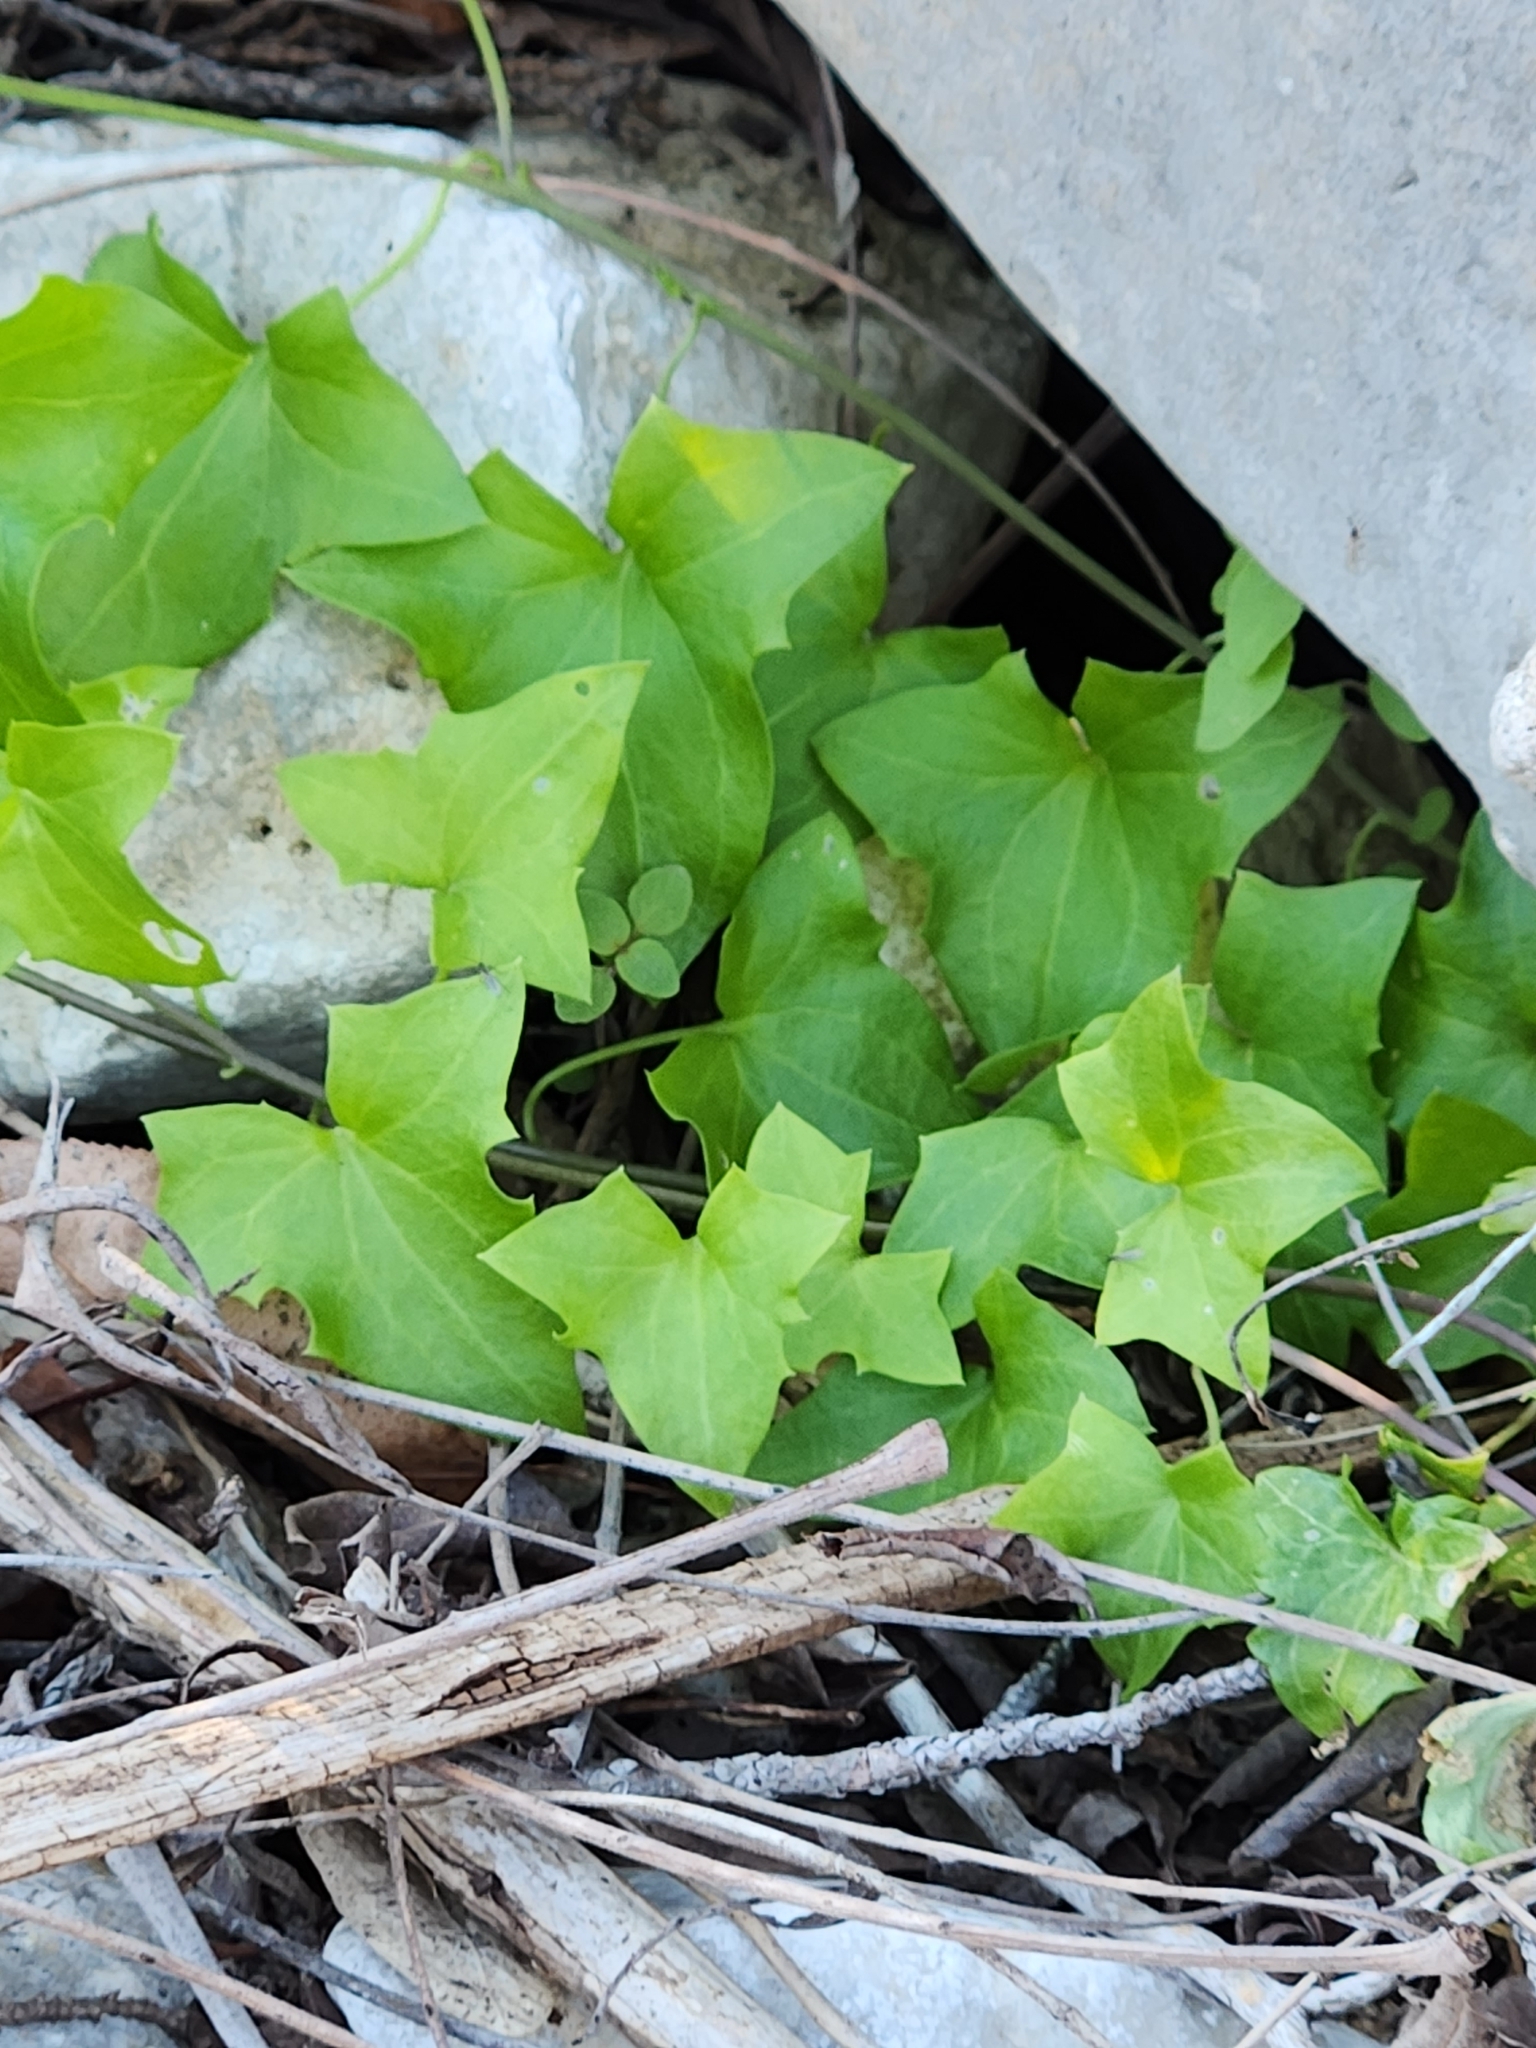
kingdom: Plantae
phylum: Tracheophyta
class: Magnoliopsida
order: Lamiales
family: Plantaginaceae
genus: Maurandella
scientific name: Maurandella antirrhiniflora
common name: Violet twining-snapdragon
